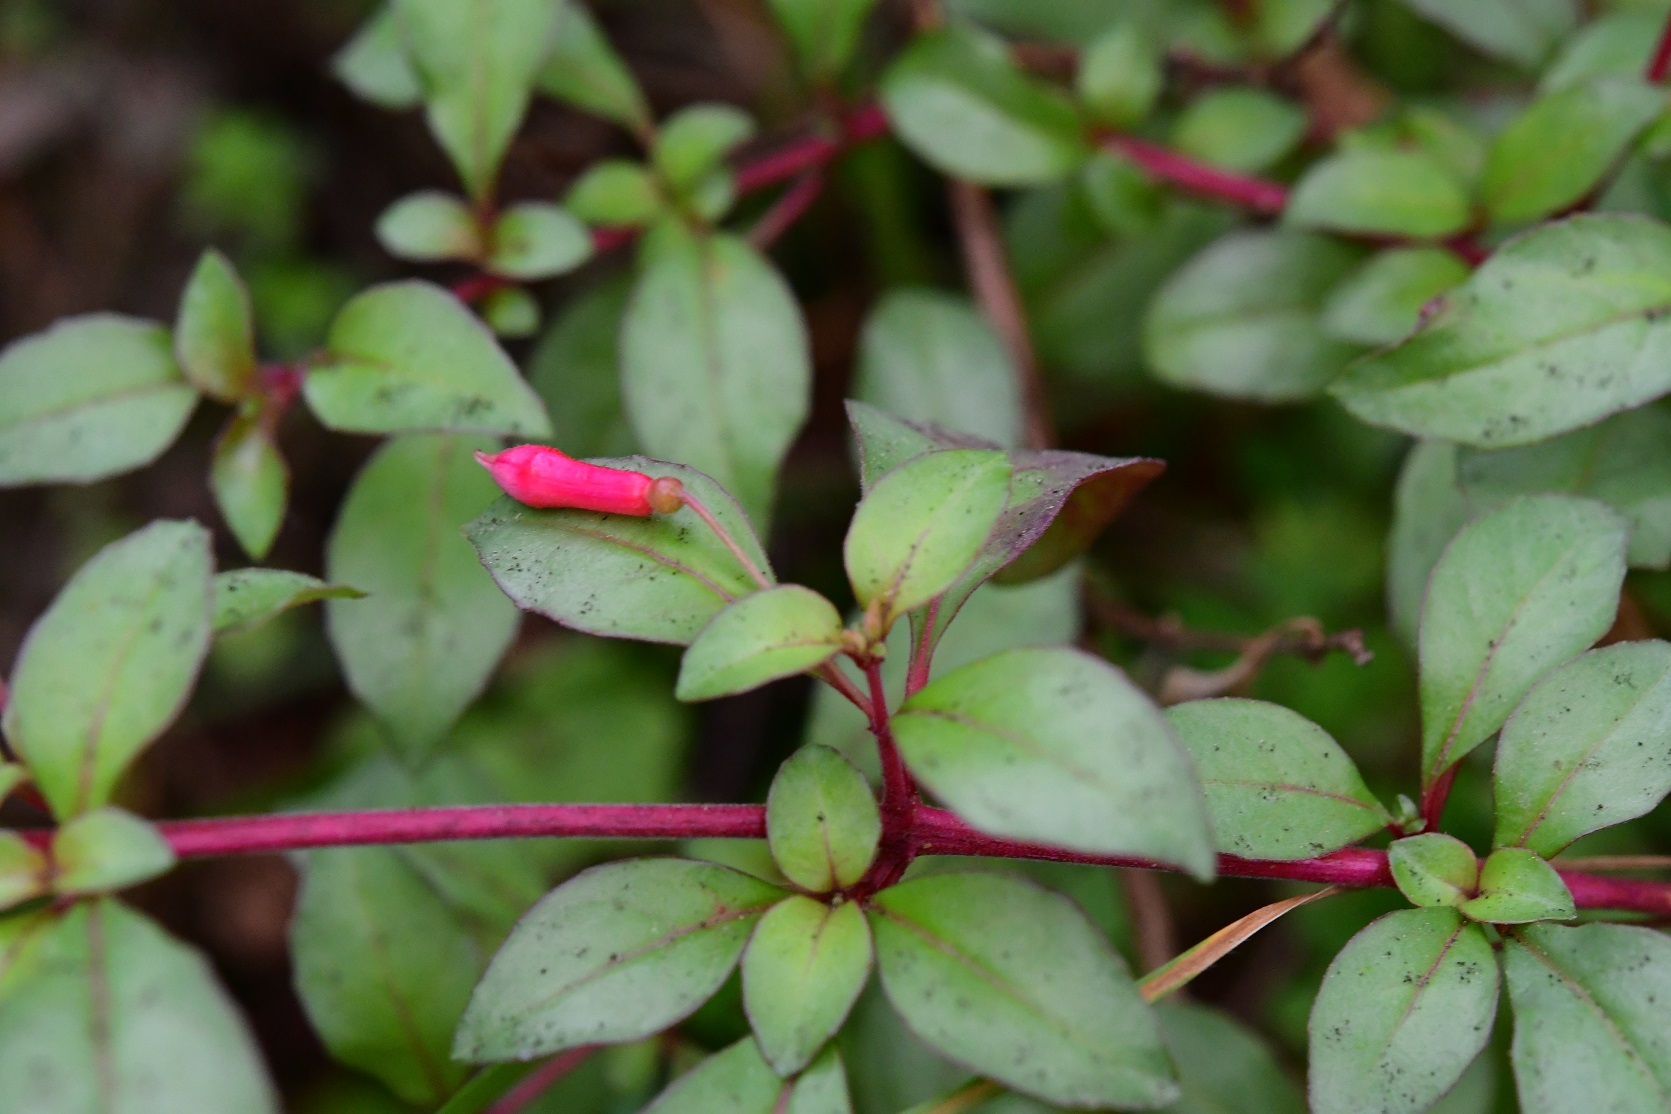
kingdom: Plantae
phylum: Tracheophyta
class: Magnoliopsida
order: Myrtales
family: Onagraceae
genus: Fuchsia
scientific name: Fuchsia thymifolia
